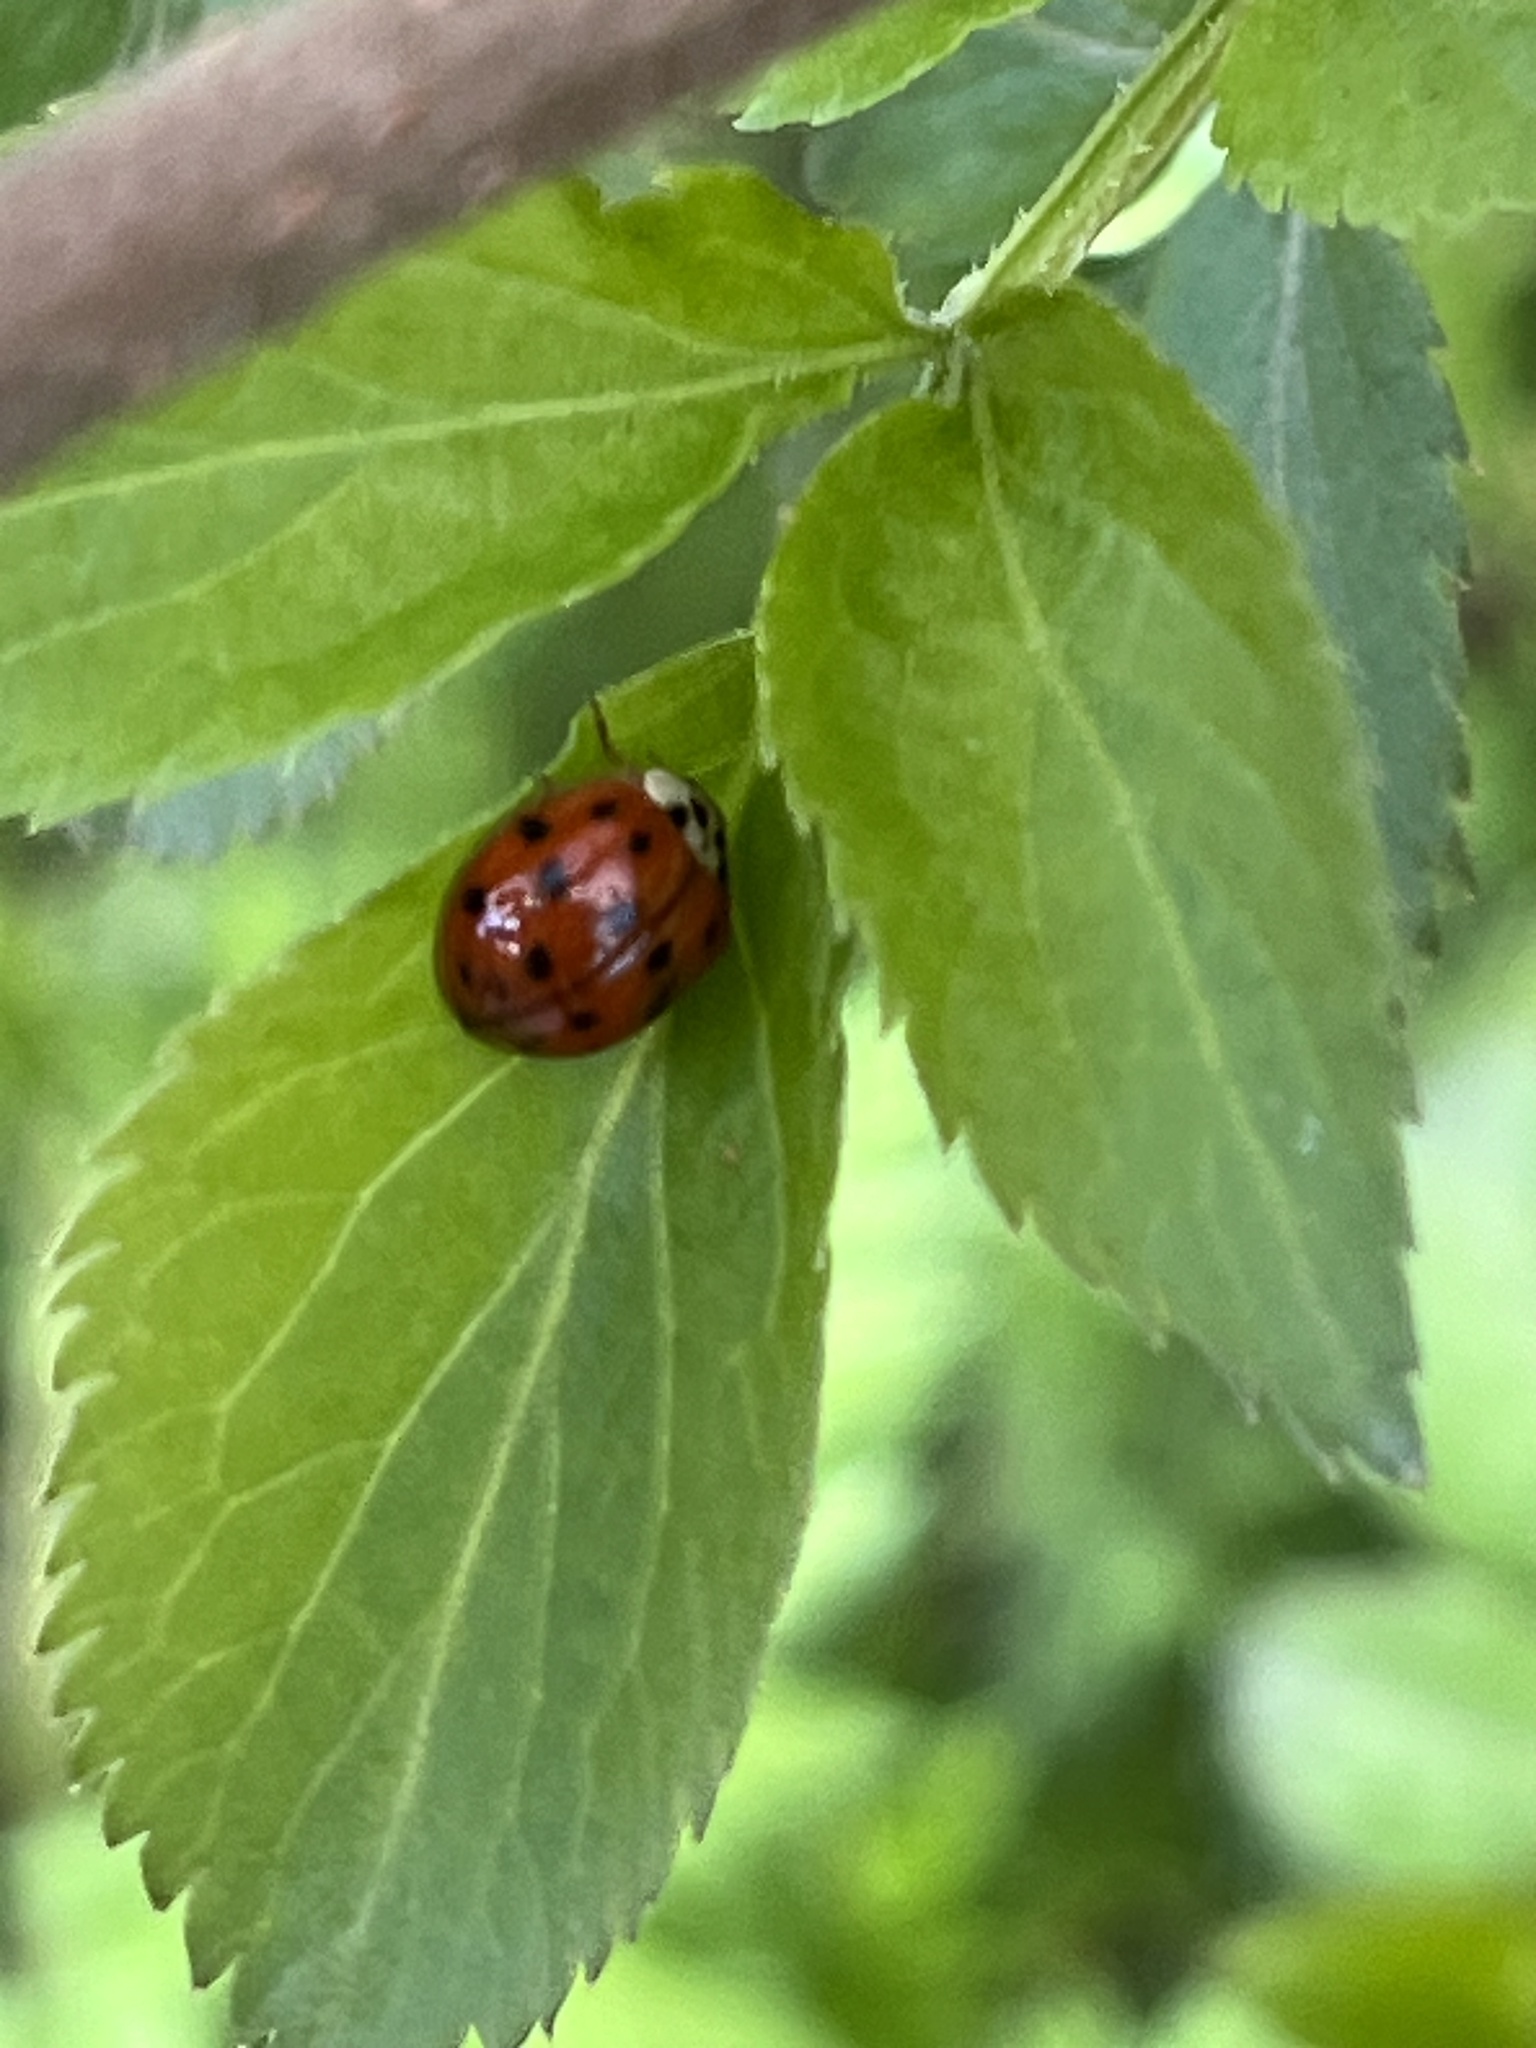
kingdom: Animalia
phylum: Arthropoda
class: Insecta
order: Coleoptera
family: Coccinellidae
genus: Harmonia
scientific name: Harmonia axyridis
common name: Harlequin ladybird
